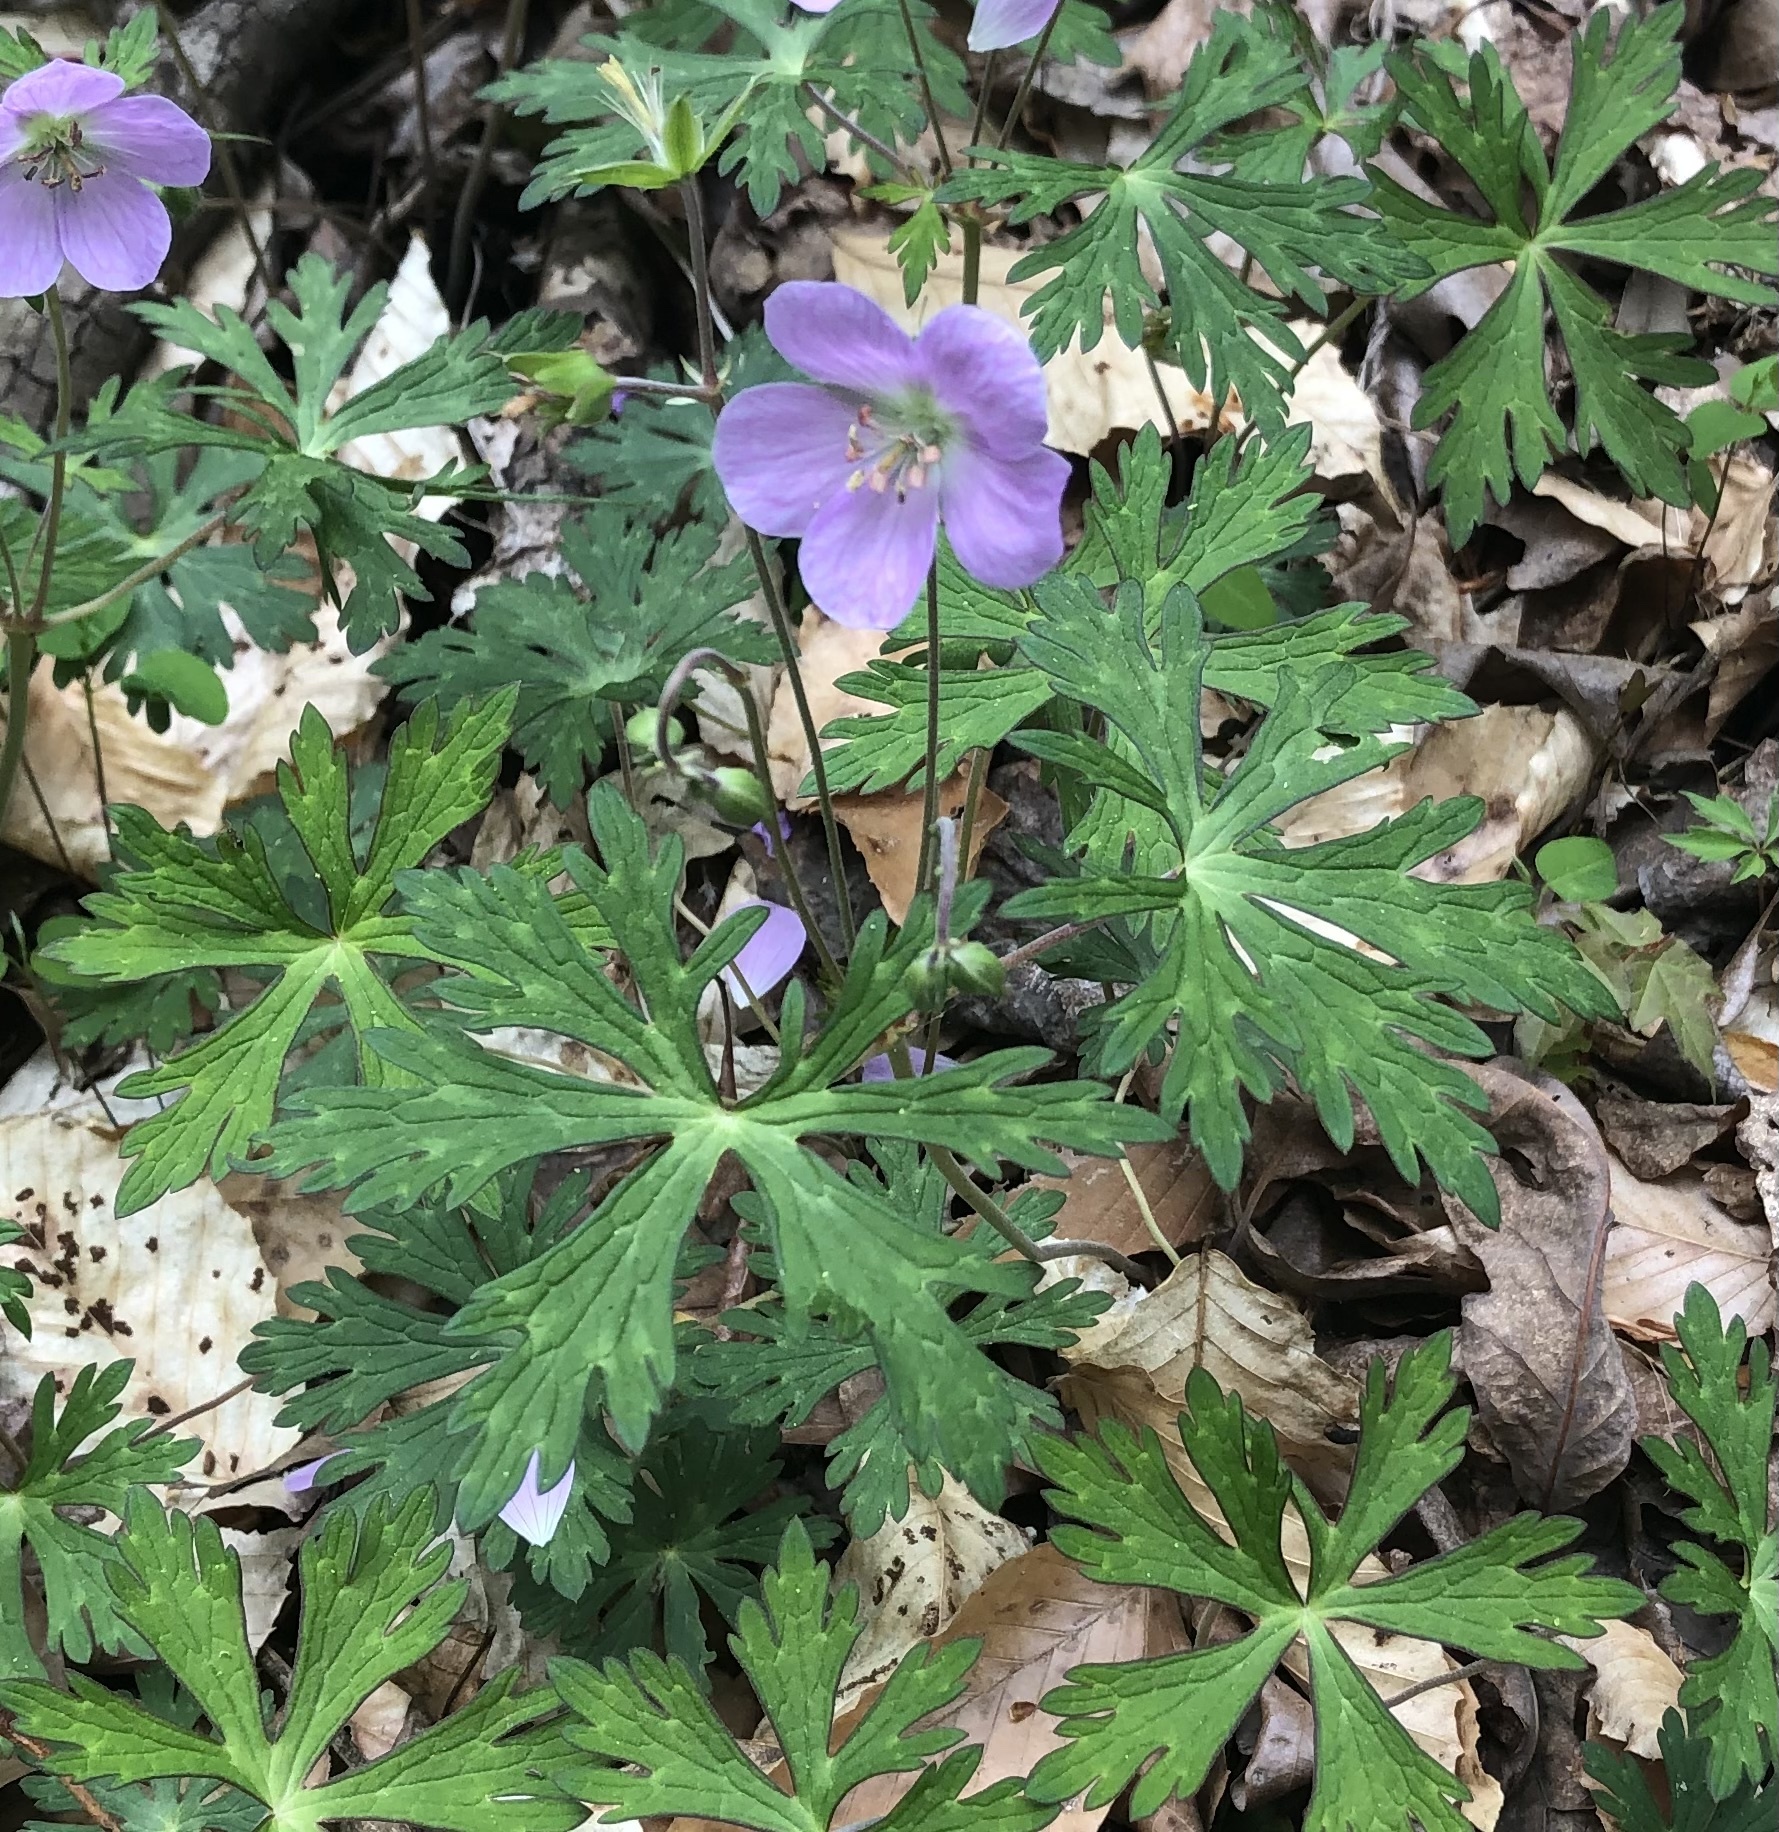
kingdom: Plantae
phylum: Tracheophyta
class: Magnoliopsida
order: Geraniales
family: Geraniaceae
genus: Geranium
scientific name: Geranium maculatum
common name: Spotted geranium
